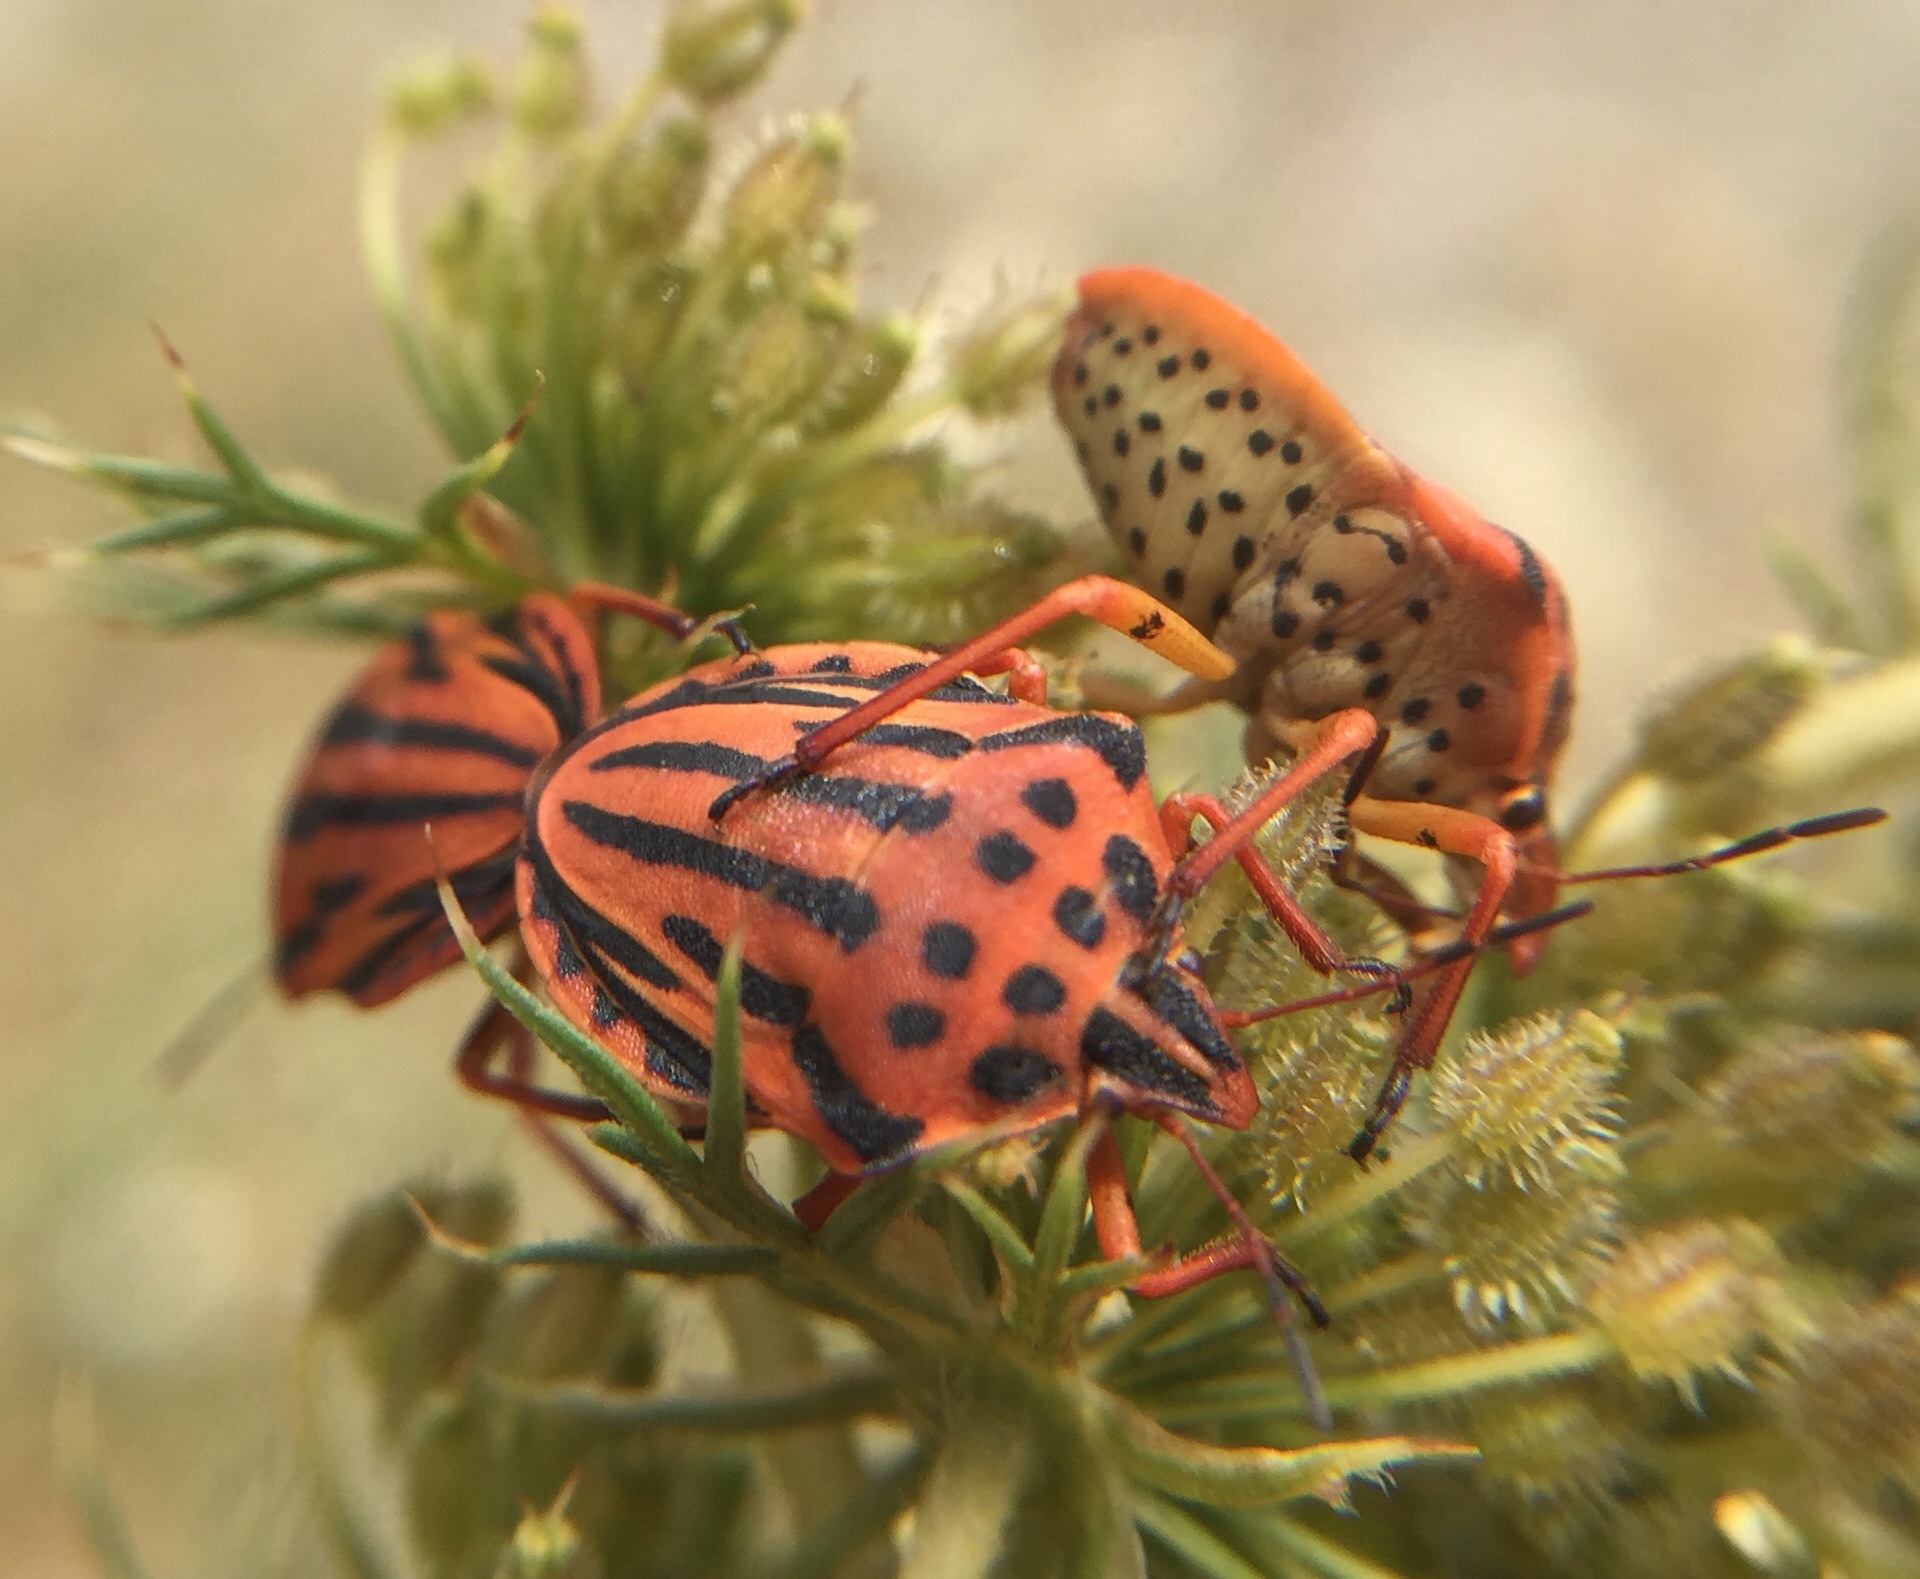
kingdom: Animalia
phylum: Arthropoda
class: Insecta
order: Hemiptera
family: Pentatomidae
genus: Graphosoma
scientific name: Graphosoma semipunctatum
